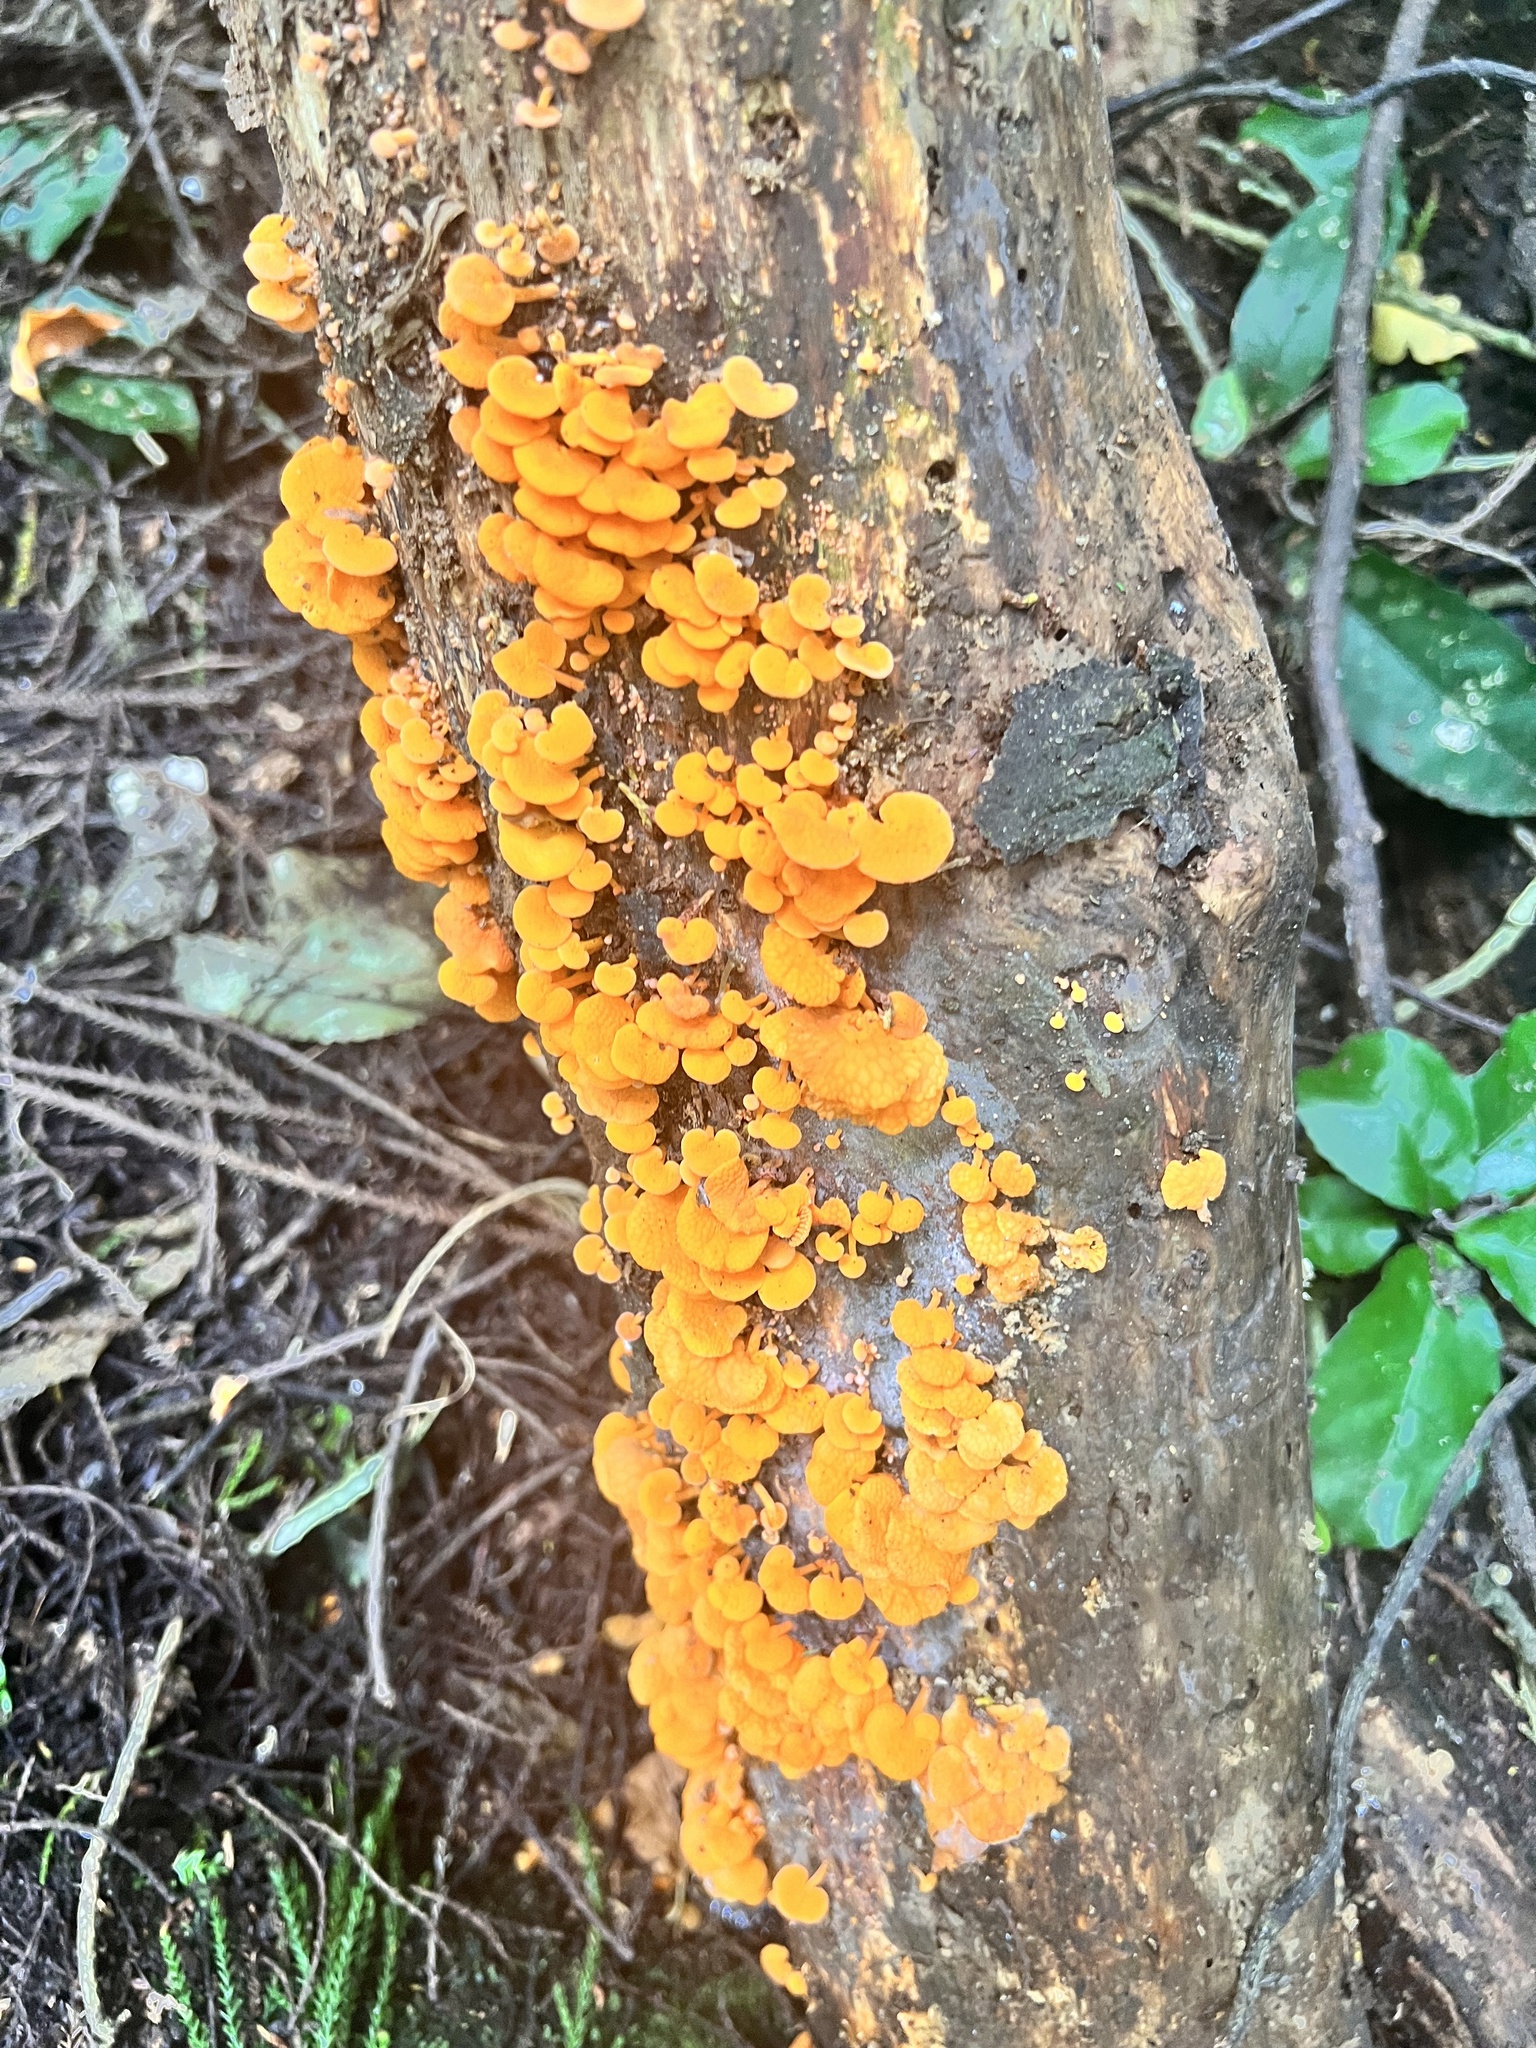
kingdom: Fungi
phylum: Basidiomycota
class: Agaricomycetes
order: Agaricales
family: Mycenaceae
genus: Favolaschia
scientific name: Favolaschia claudopus
